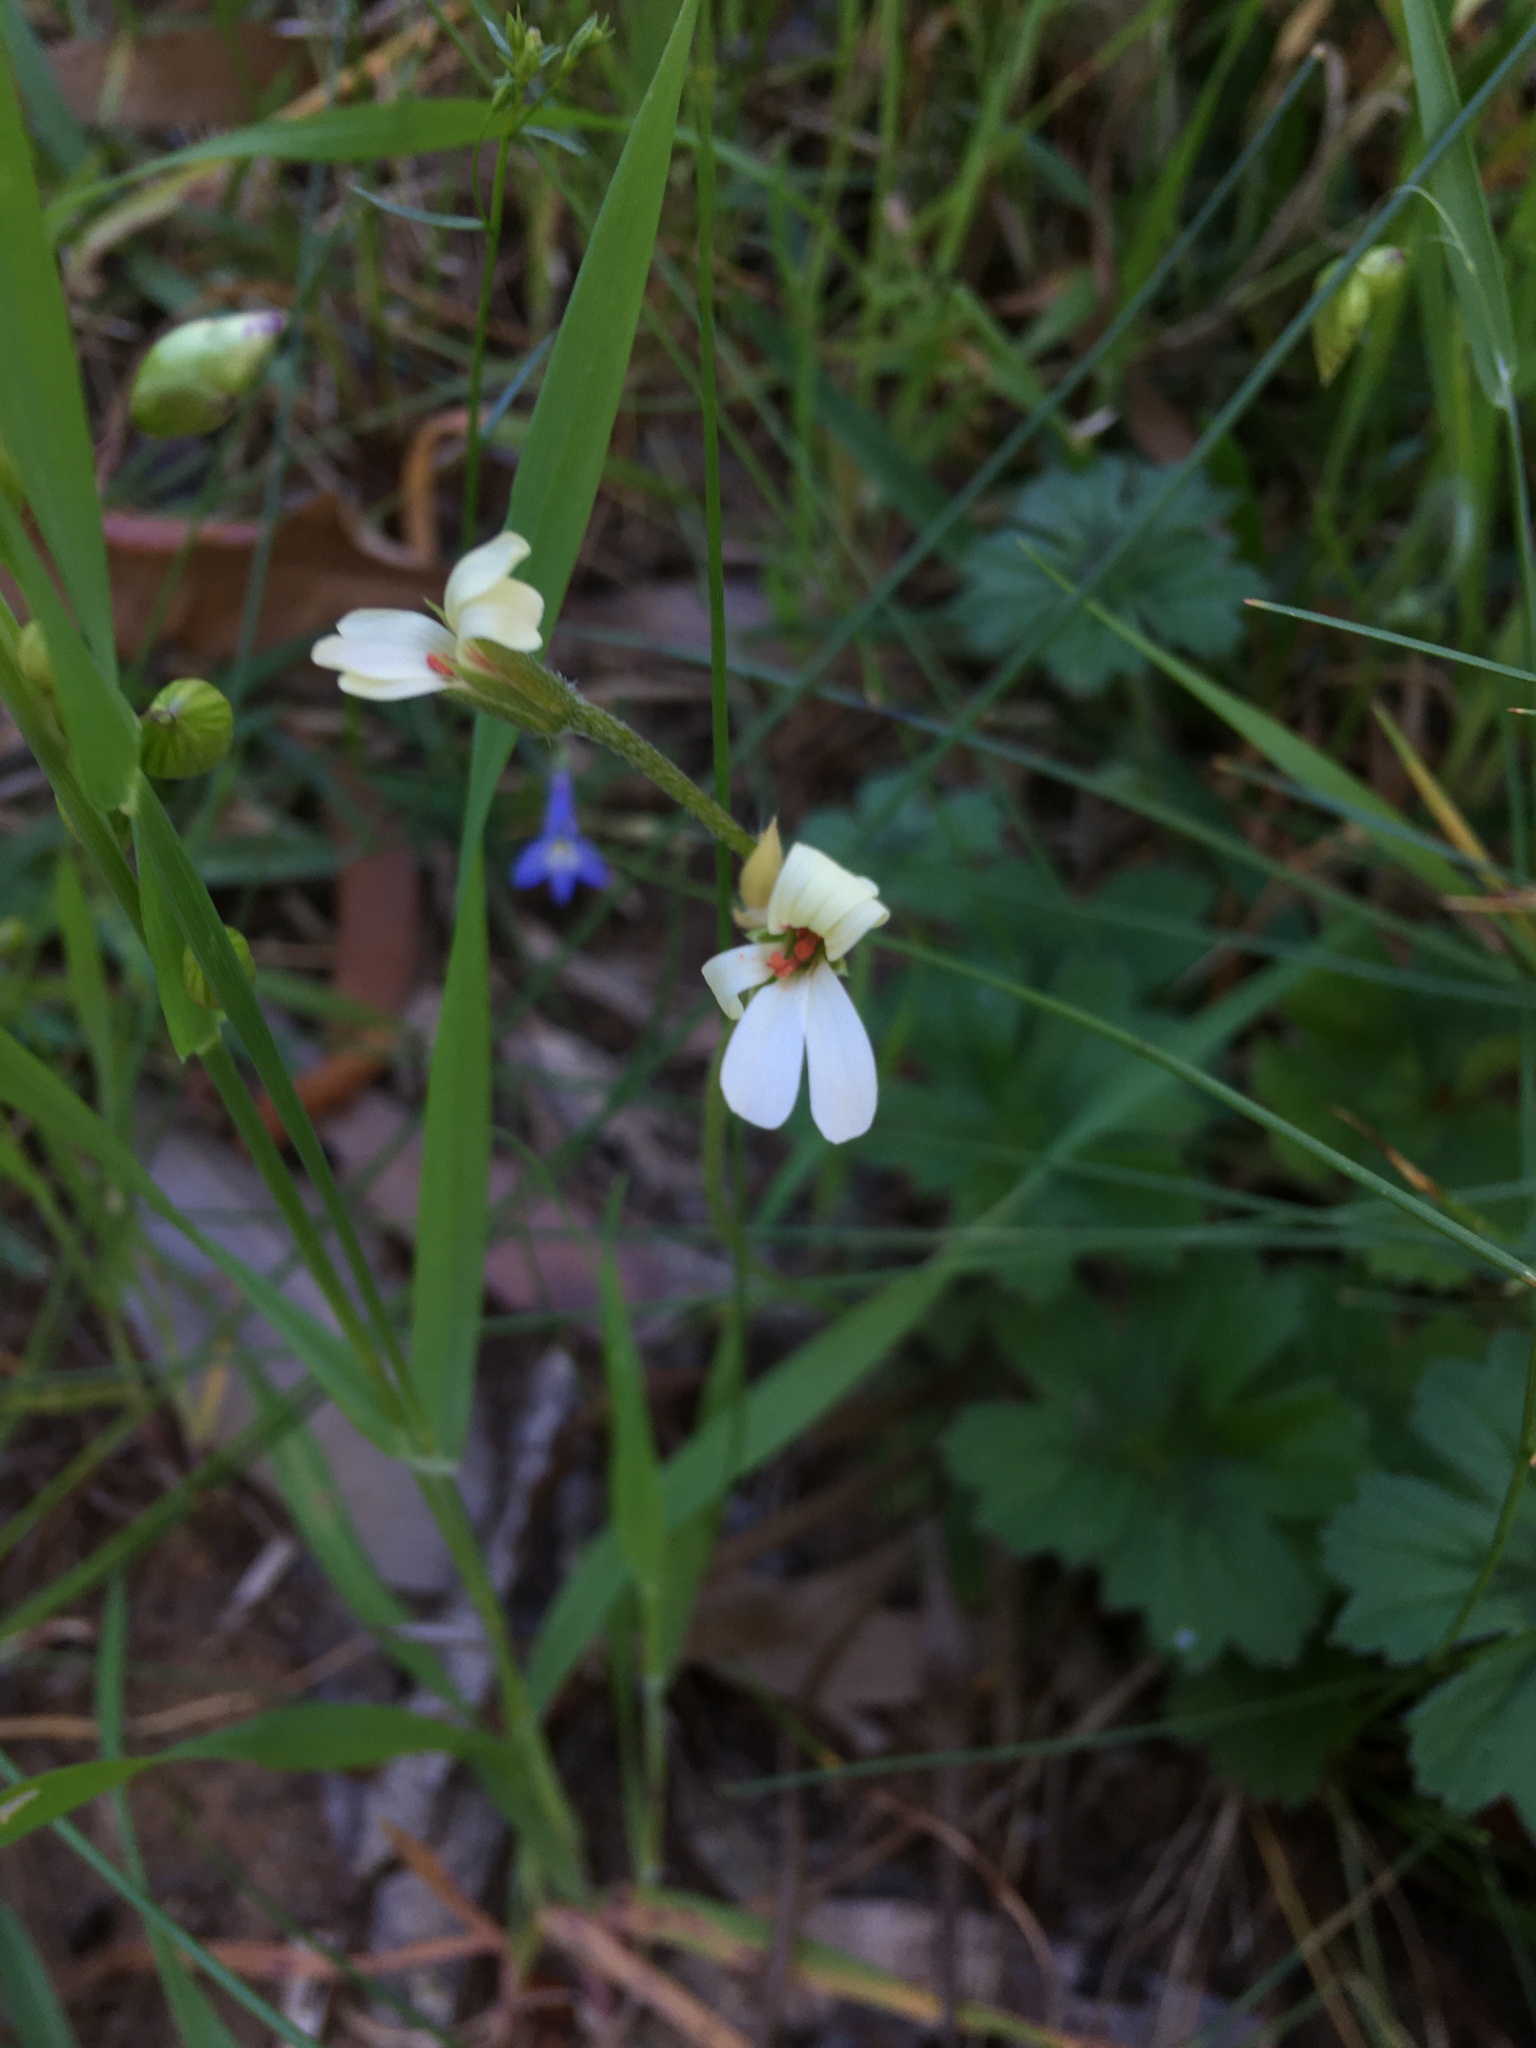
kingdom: Plantae
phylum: Tracheophyta
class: Magnoliopsida
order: Geraniales
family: Geraniaceae
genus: Pelargonium
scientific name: Pelargonium alchemilloides
